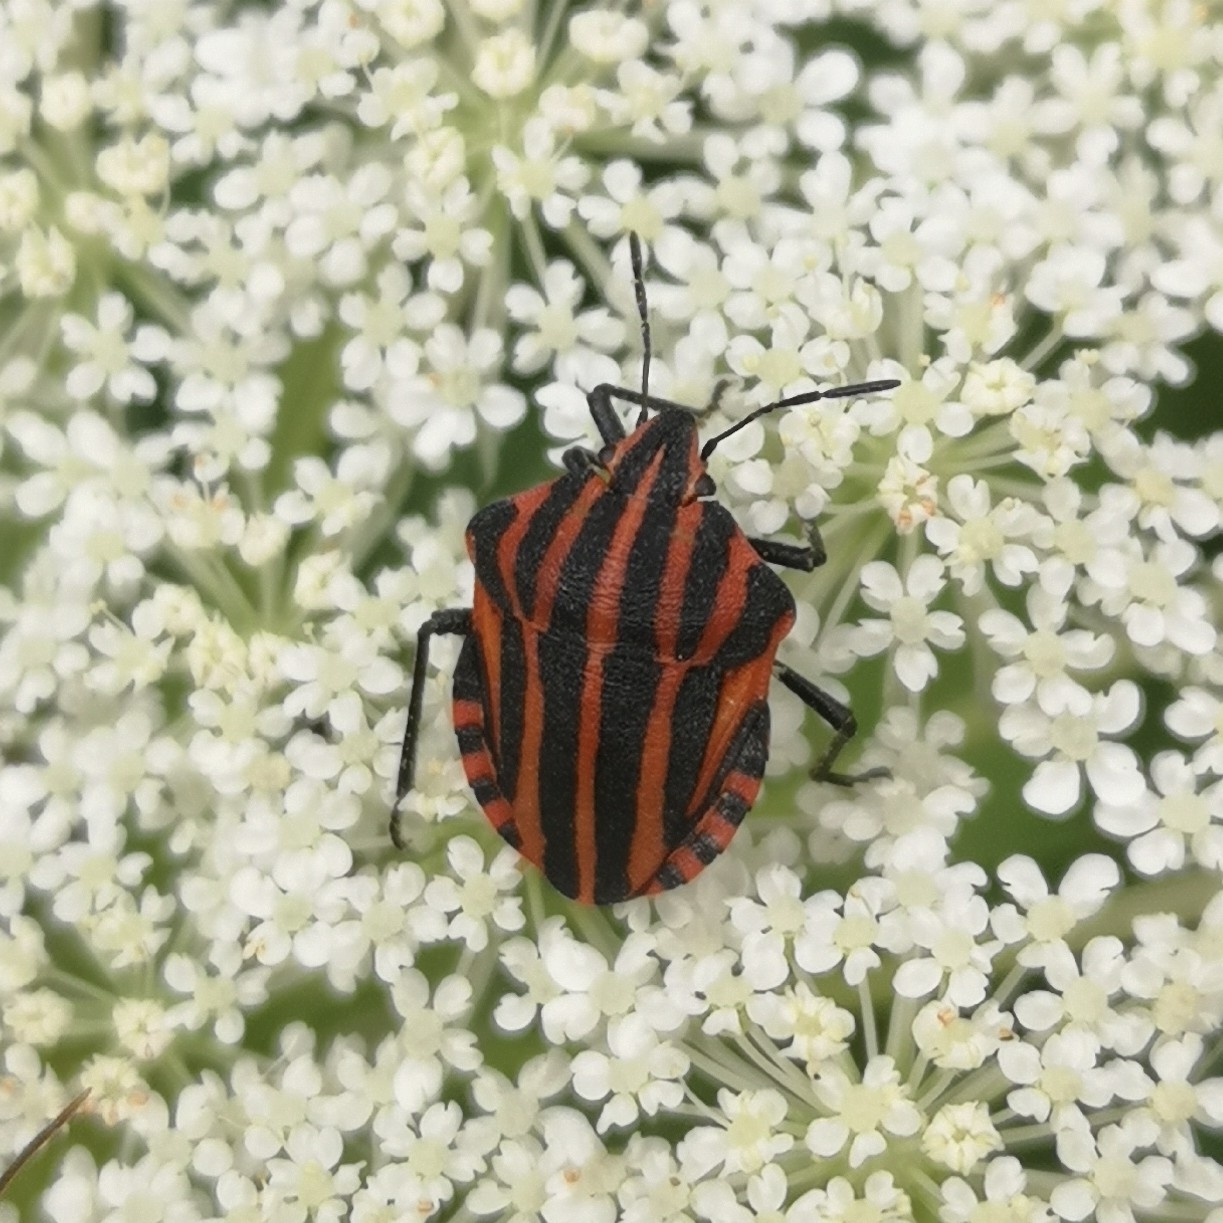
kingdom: Animalia
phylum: Arthropoda
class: Insecta
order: Hemiptera
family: Pentatomidae
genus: Graphosoma
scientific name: Graphosoma italicum
